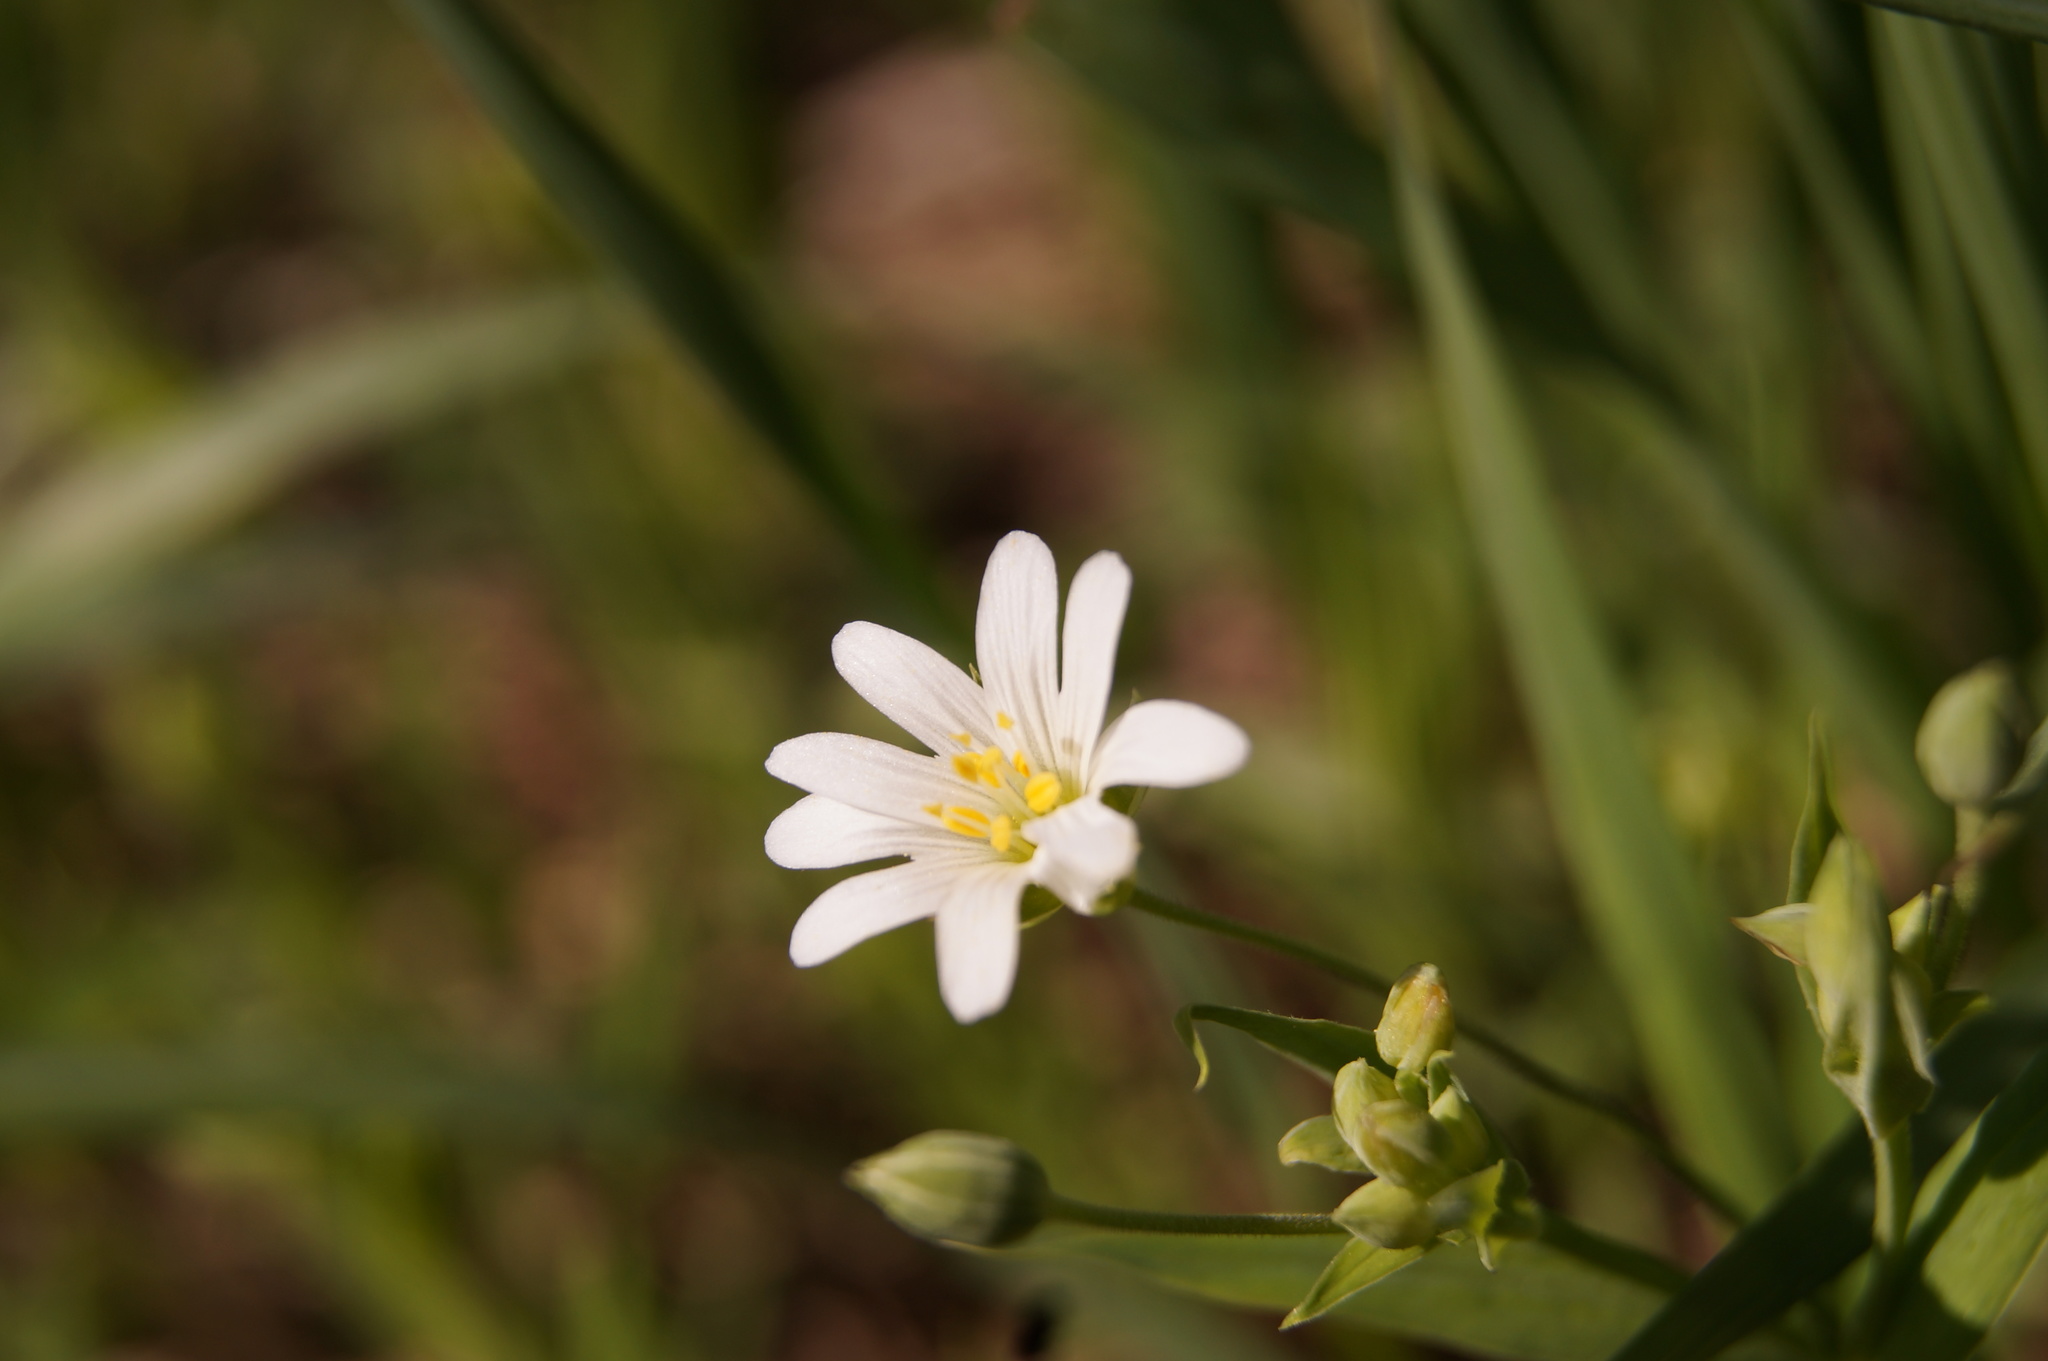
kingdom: Plantae
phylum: Tracheophyta
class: Magnoliopsida
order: Caryophyllales
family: Caryophyllaceae
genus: Rabelera
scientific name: Rabelera holostea
